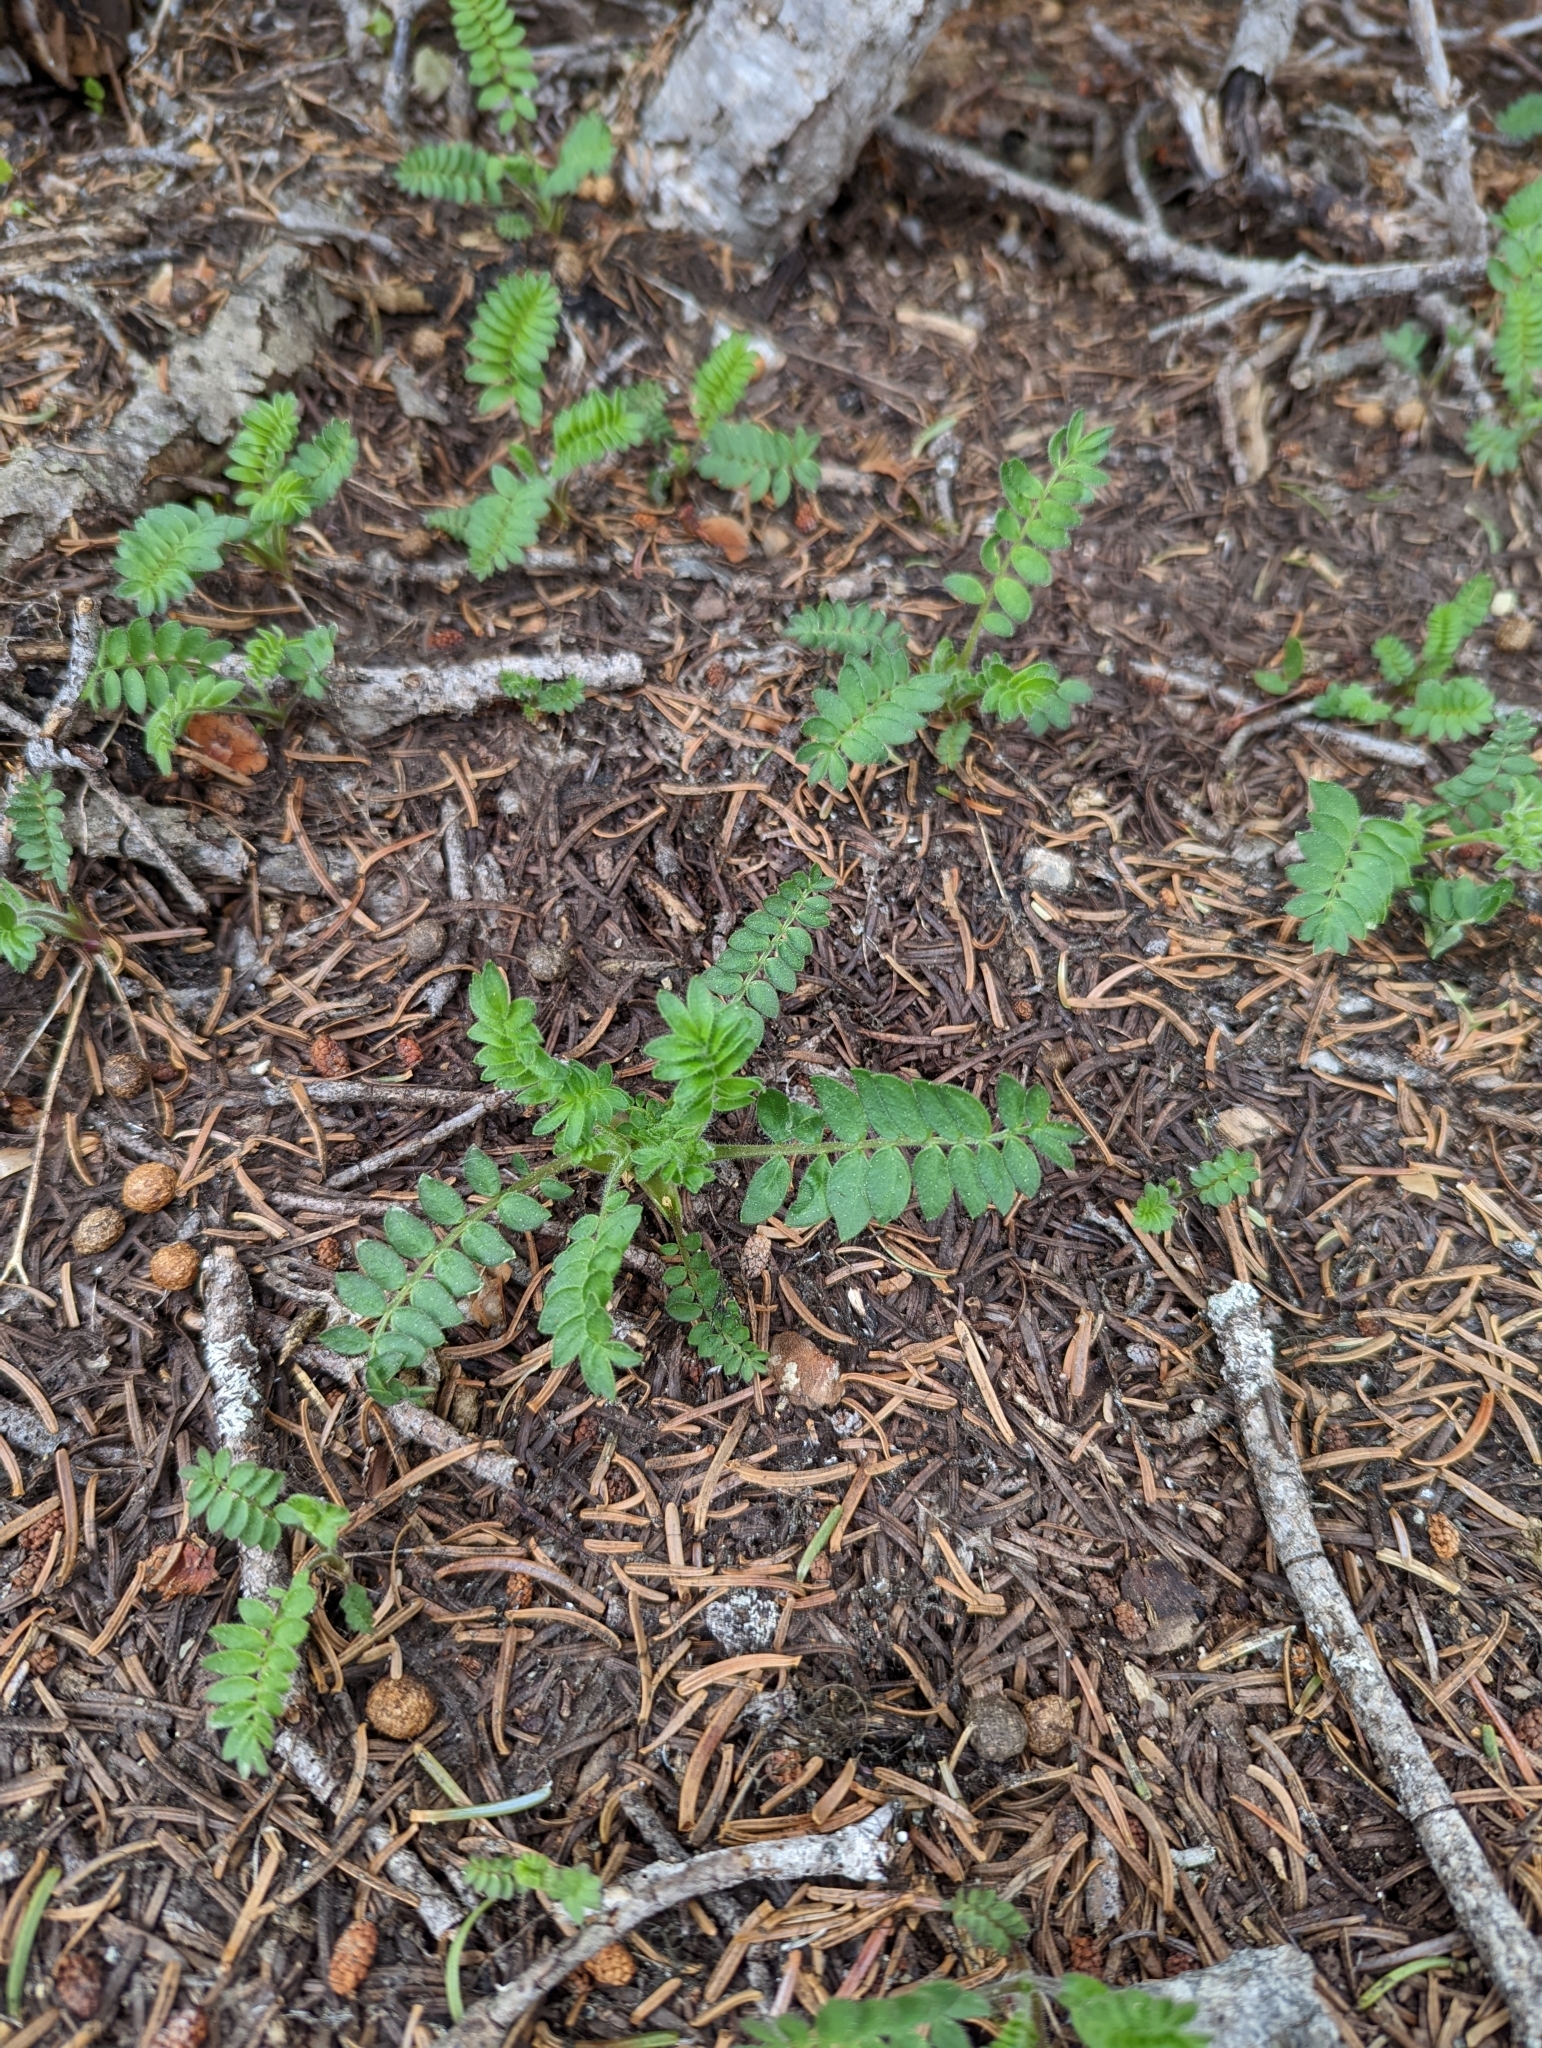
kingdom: Plantae
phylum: Tracheophyta
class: Magnoliopsida
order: Ericales
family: Polemoniaceae
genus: Polemonium
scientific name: Polemonium californicum
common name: California jacob's ladder
